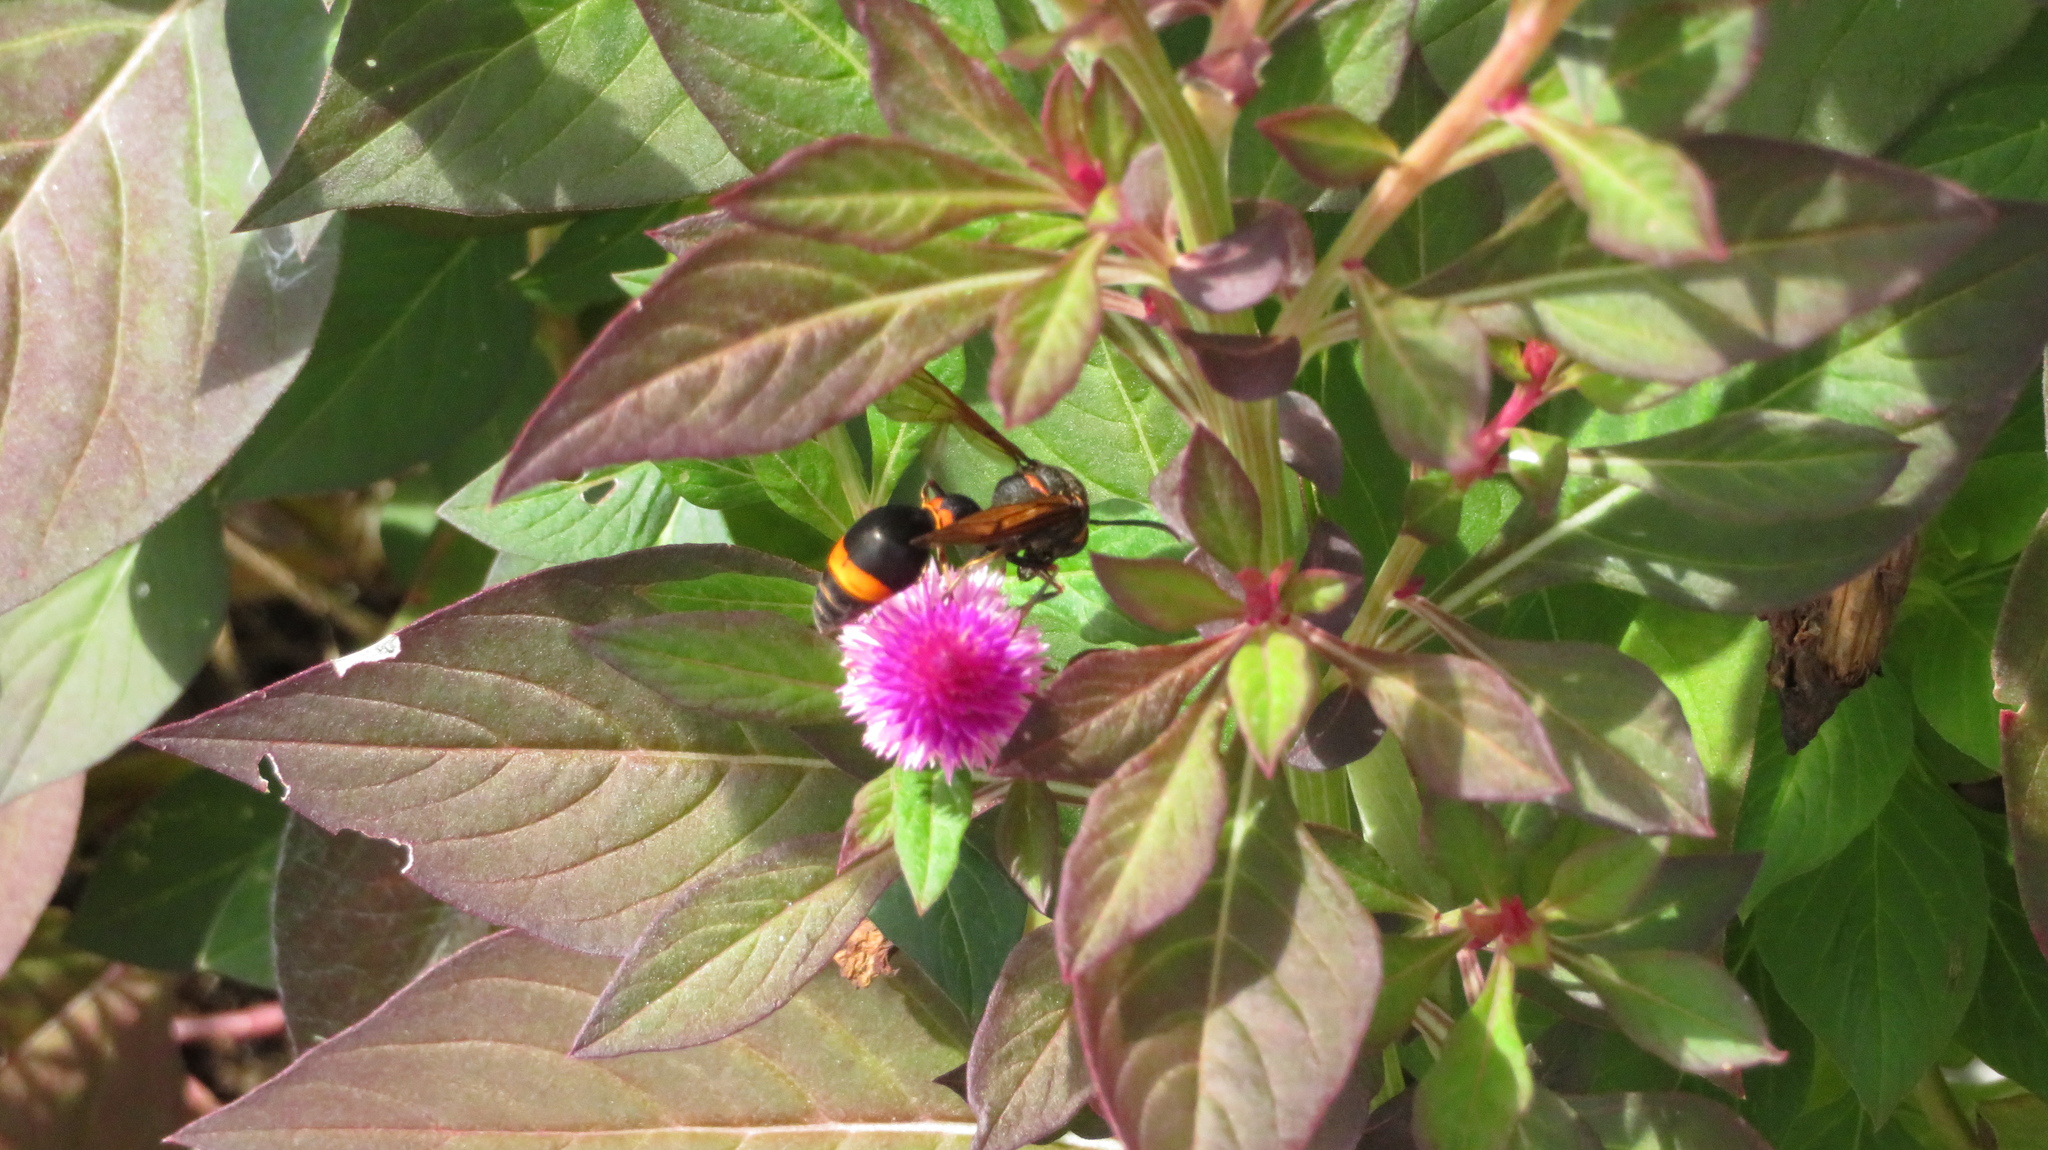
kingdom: Animalia
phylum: Arthropoda
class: Insecta
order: Hymenoptera
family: Eumenidae
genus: Oreumenes
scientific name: Oreumenes decoratus
